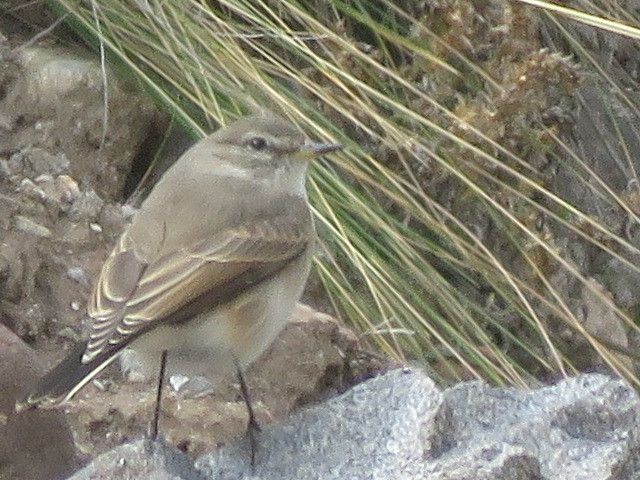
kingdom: Animalia
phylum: Chordata
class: Aves
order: Passeriformes
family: Tyrannidae
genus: Muscisaxicola
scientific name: Muscisaxicola maculirostris
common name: Spot-billed ground tyrant
